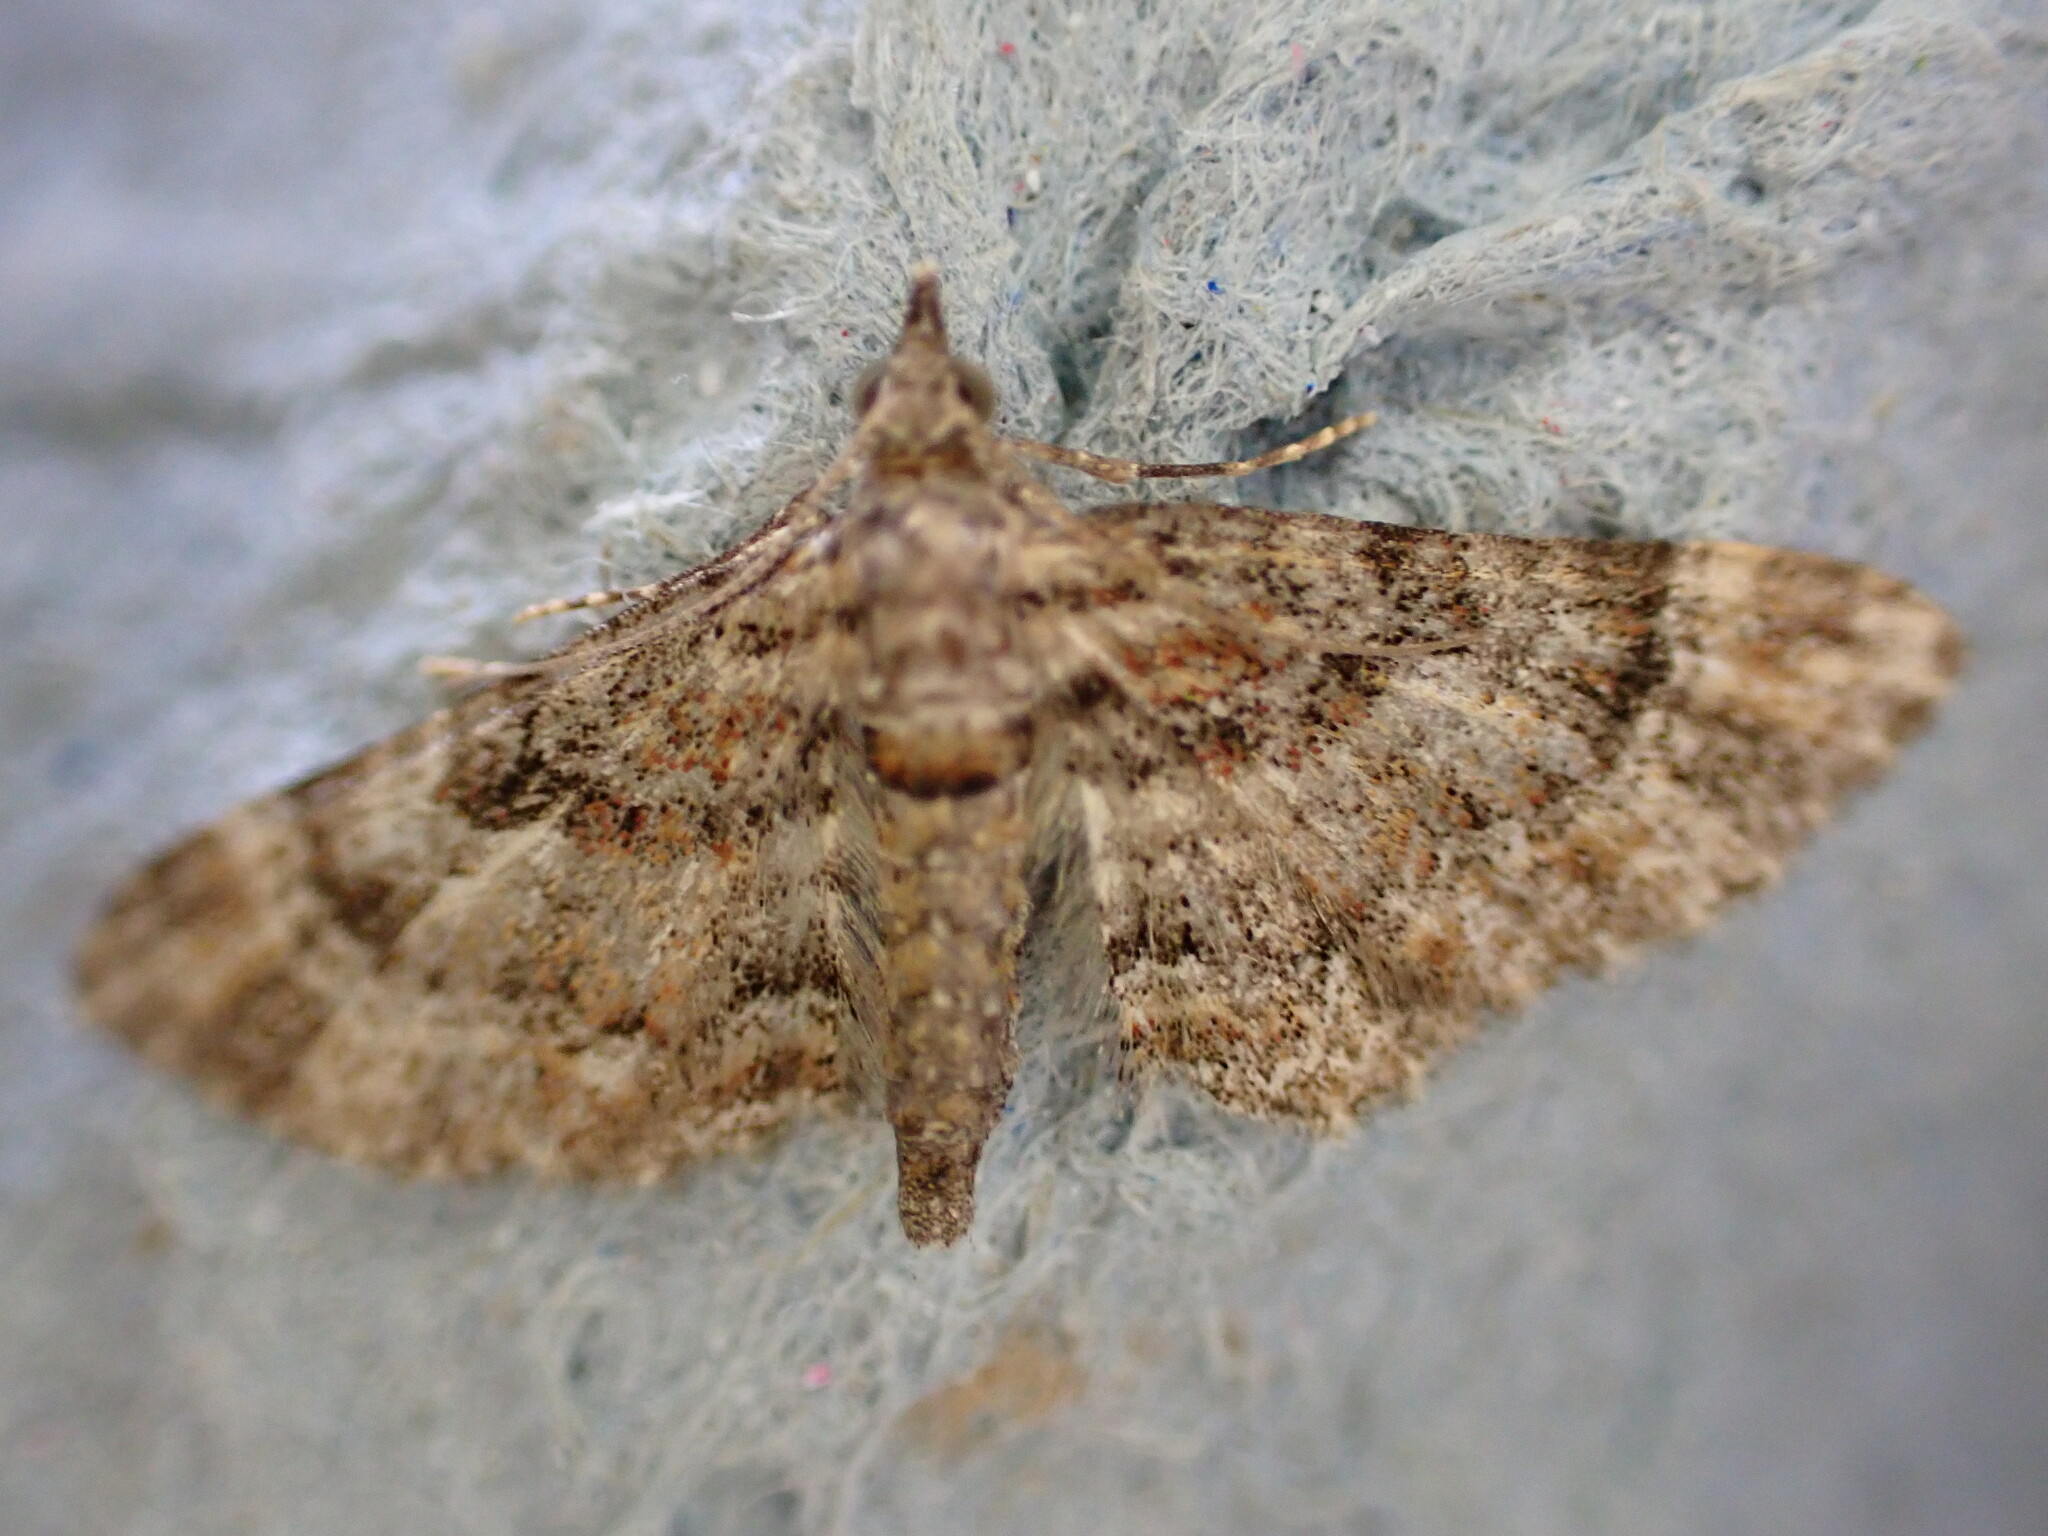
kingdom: Animalia
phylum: Arthropoda
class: Insecta
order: Lepidoptera
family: Geometridae
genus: Gymnoscelis
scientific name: Gymnoscelis rufifasciata
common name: Double-striped pug
